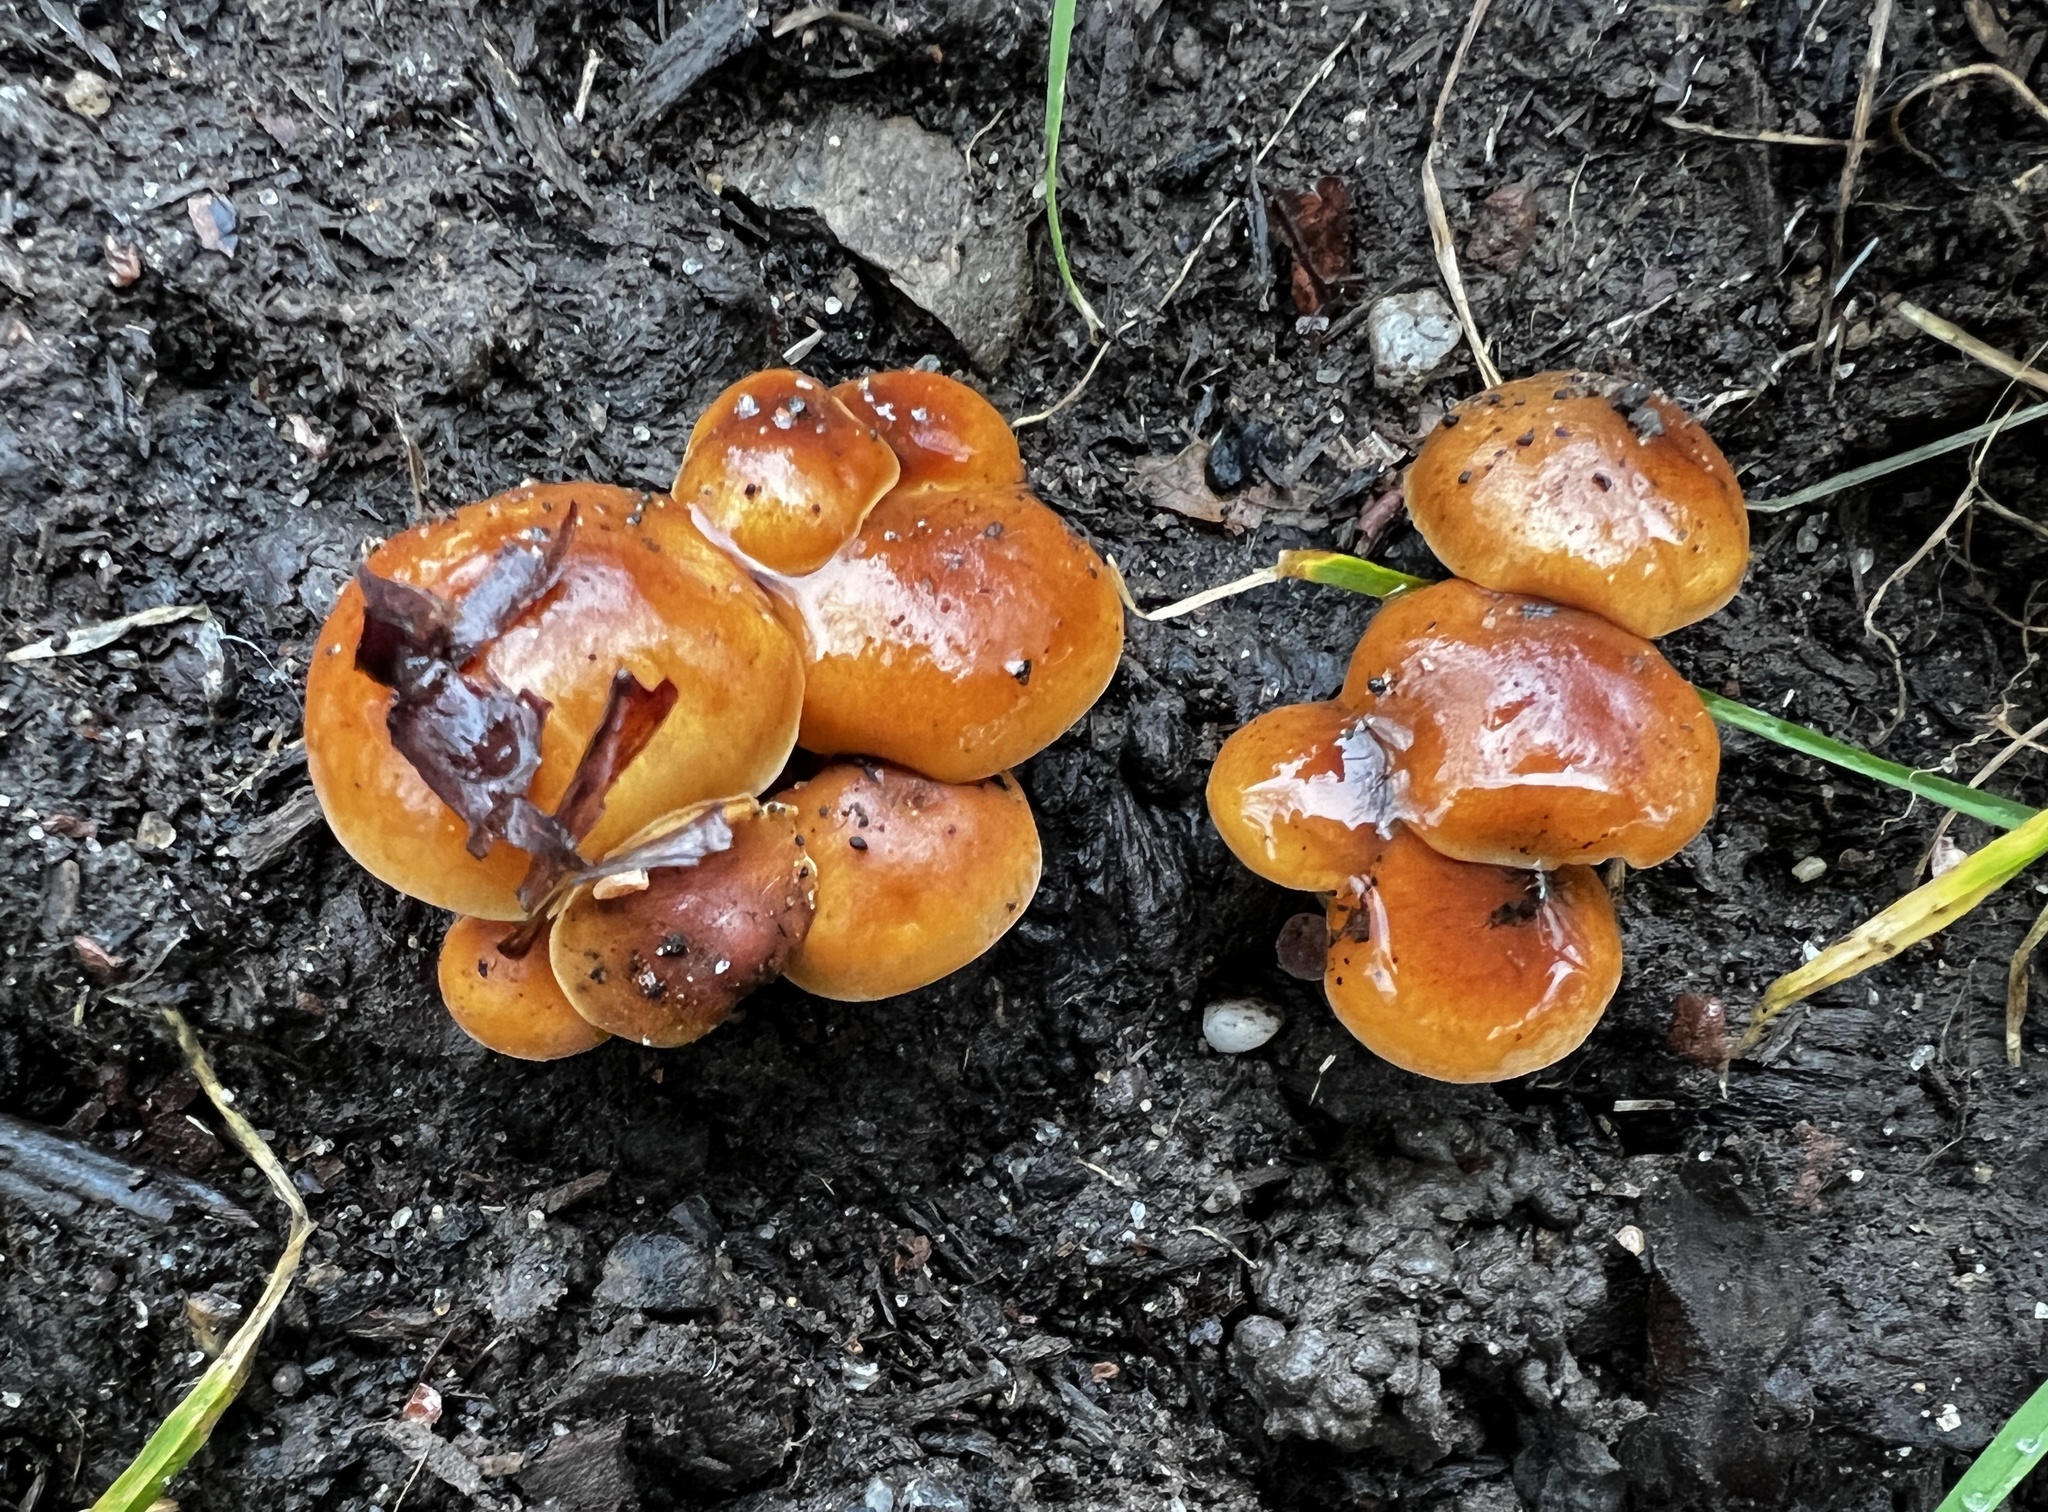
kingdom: Fungi
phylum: Basidiomycota
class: Agaricomycetes
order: Agaricales
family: Physalacriaceae
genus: Flammulina
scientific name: Flammulina velutipes
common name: Velvet shank
